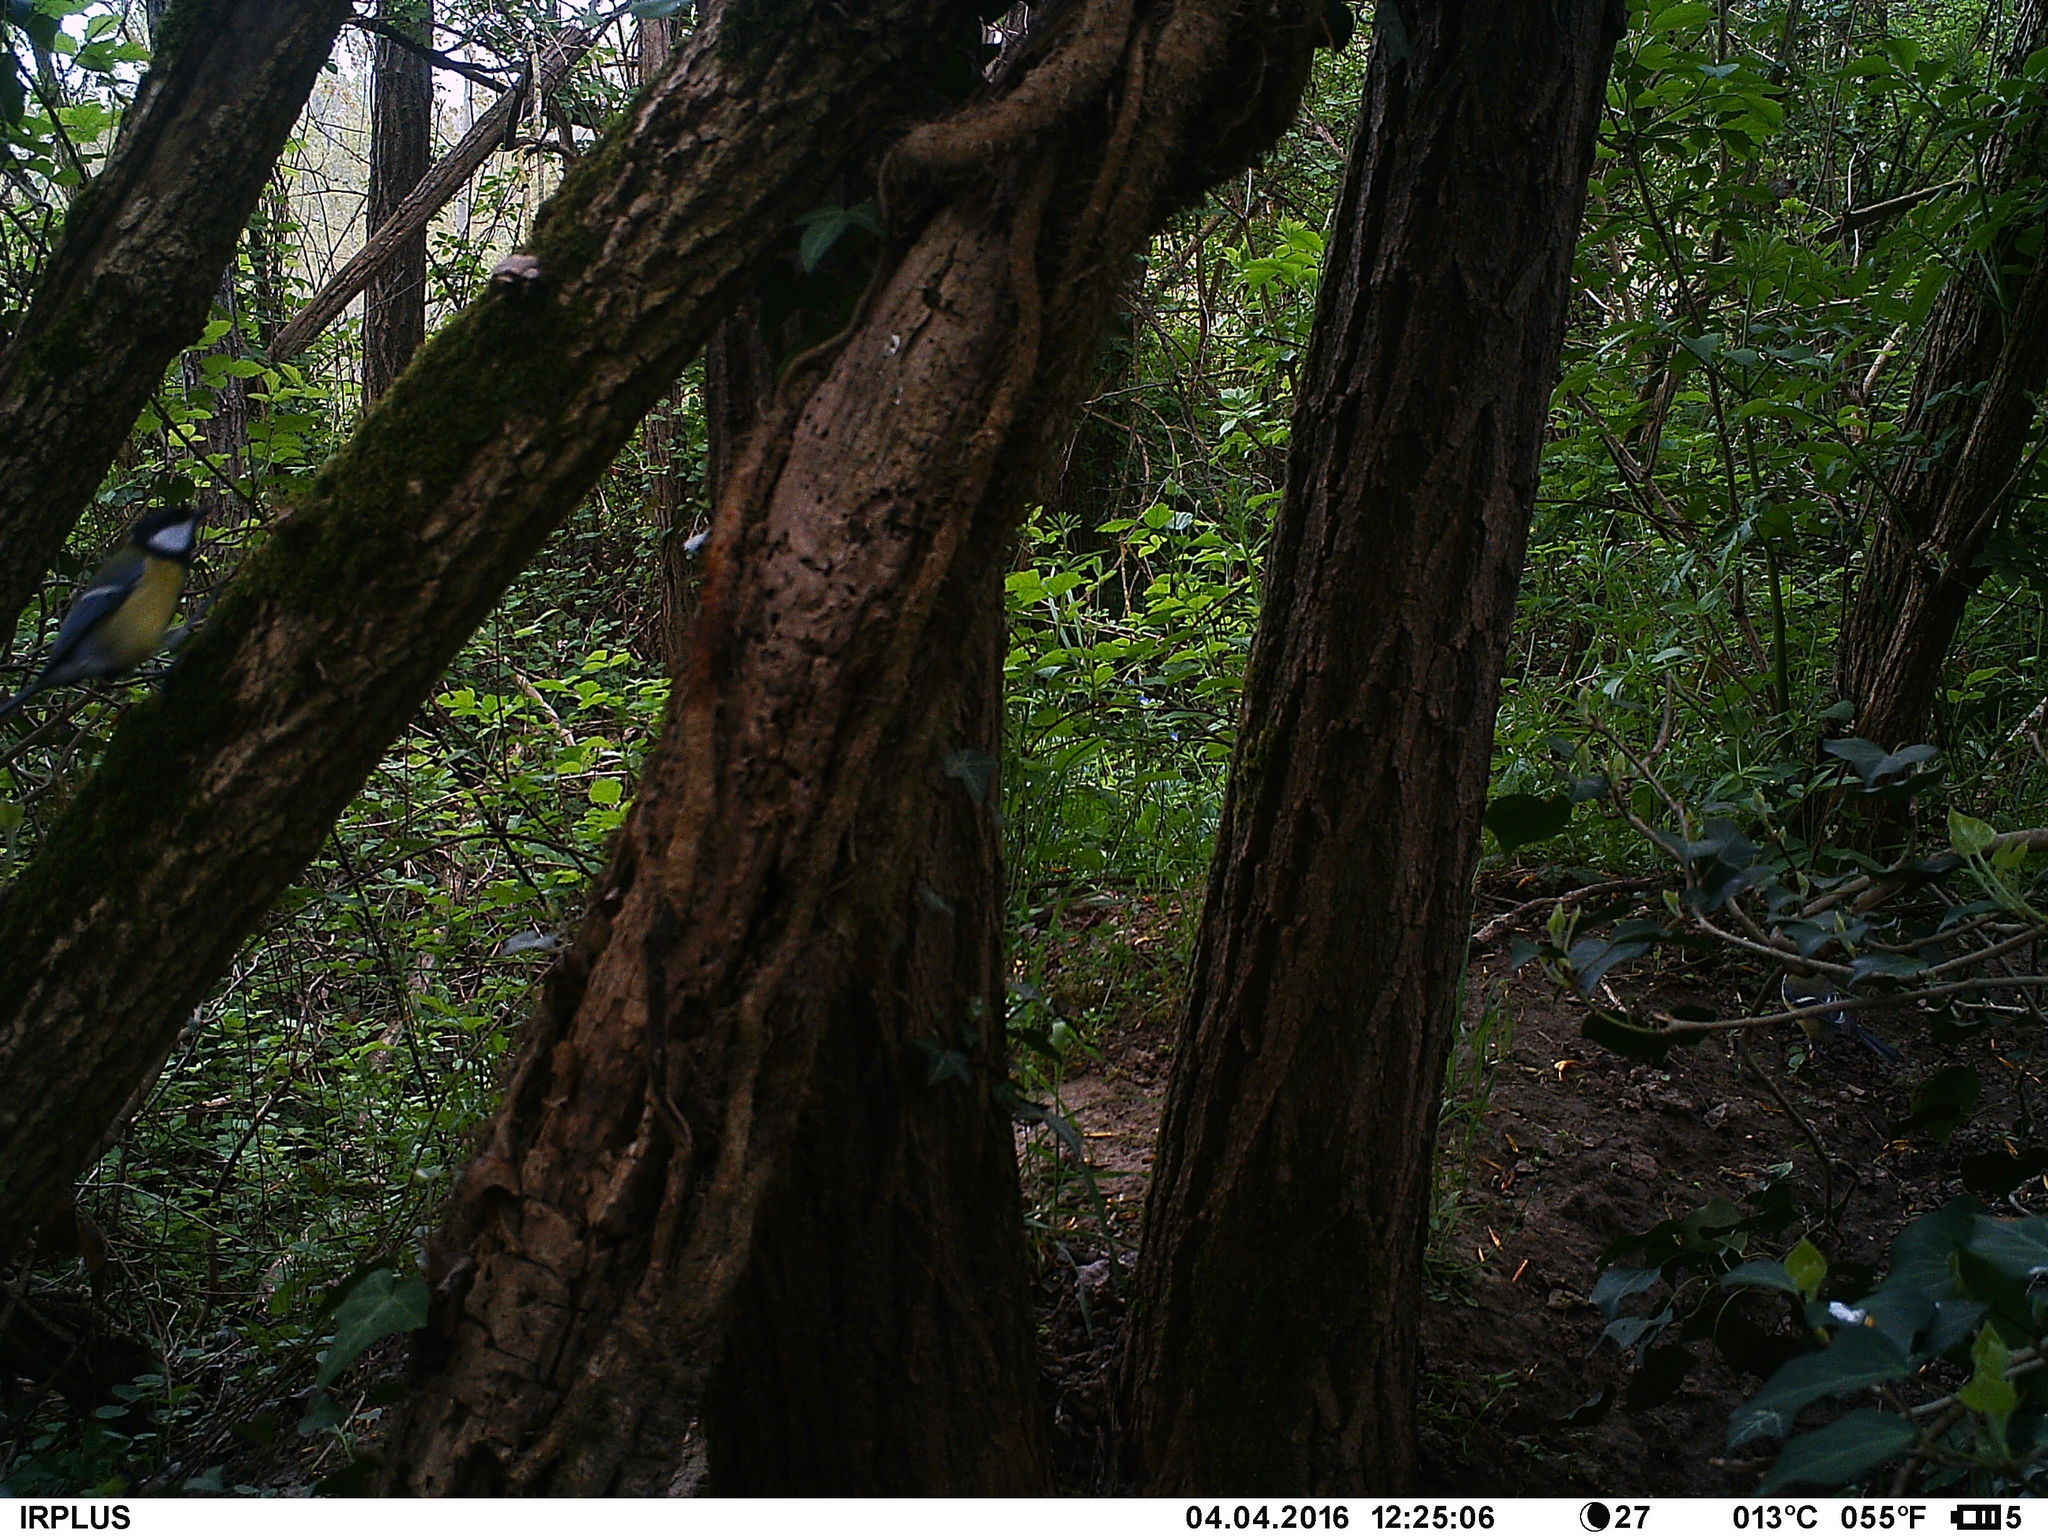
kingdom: Animalia
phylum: Chordata
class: Aves
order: Passeriformes
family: Paridae
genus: Parus
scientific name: Parus major
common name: Great tit
